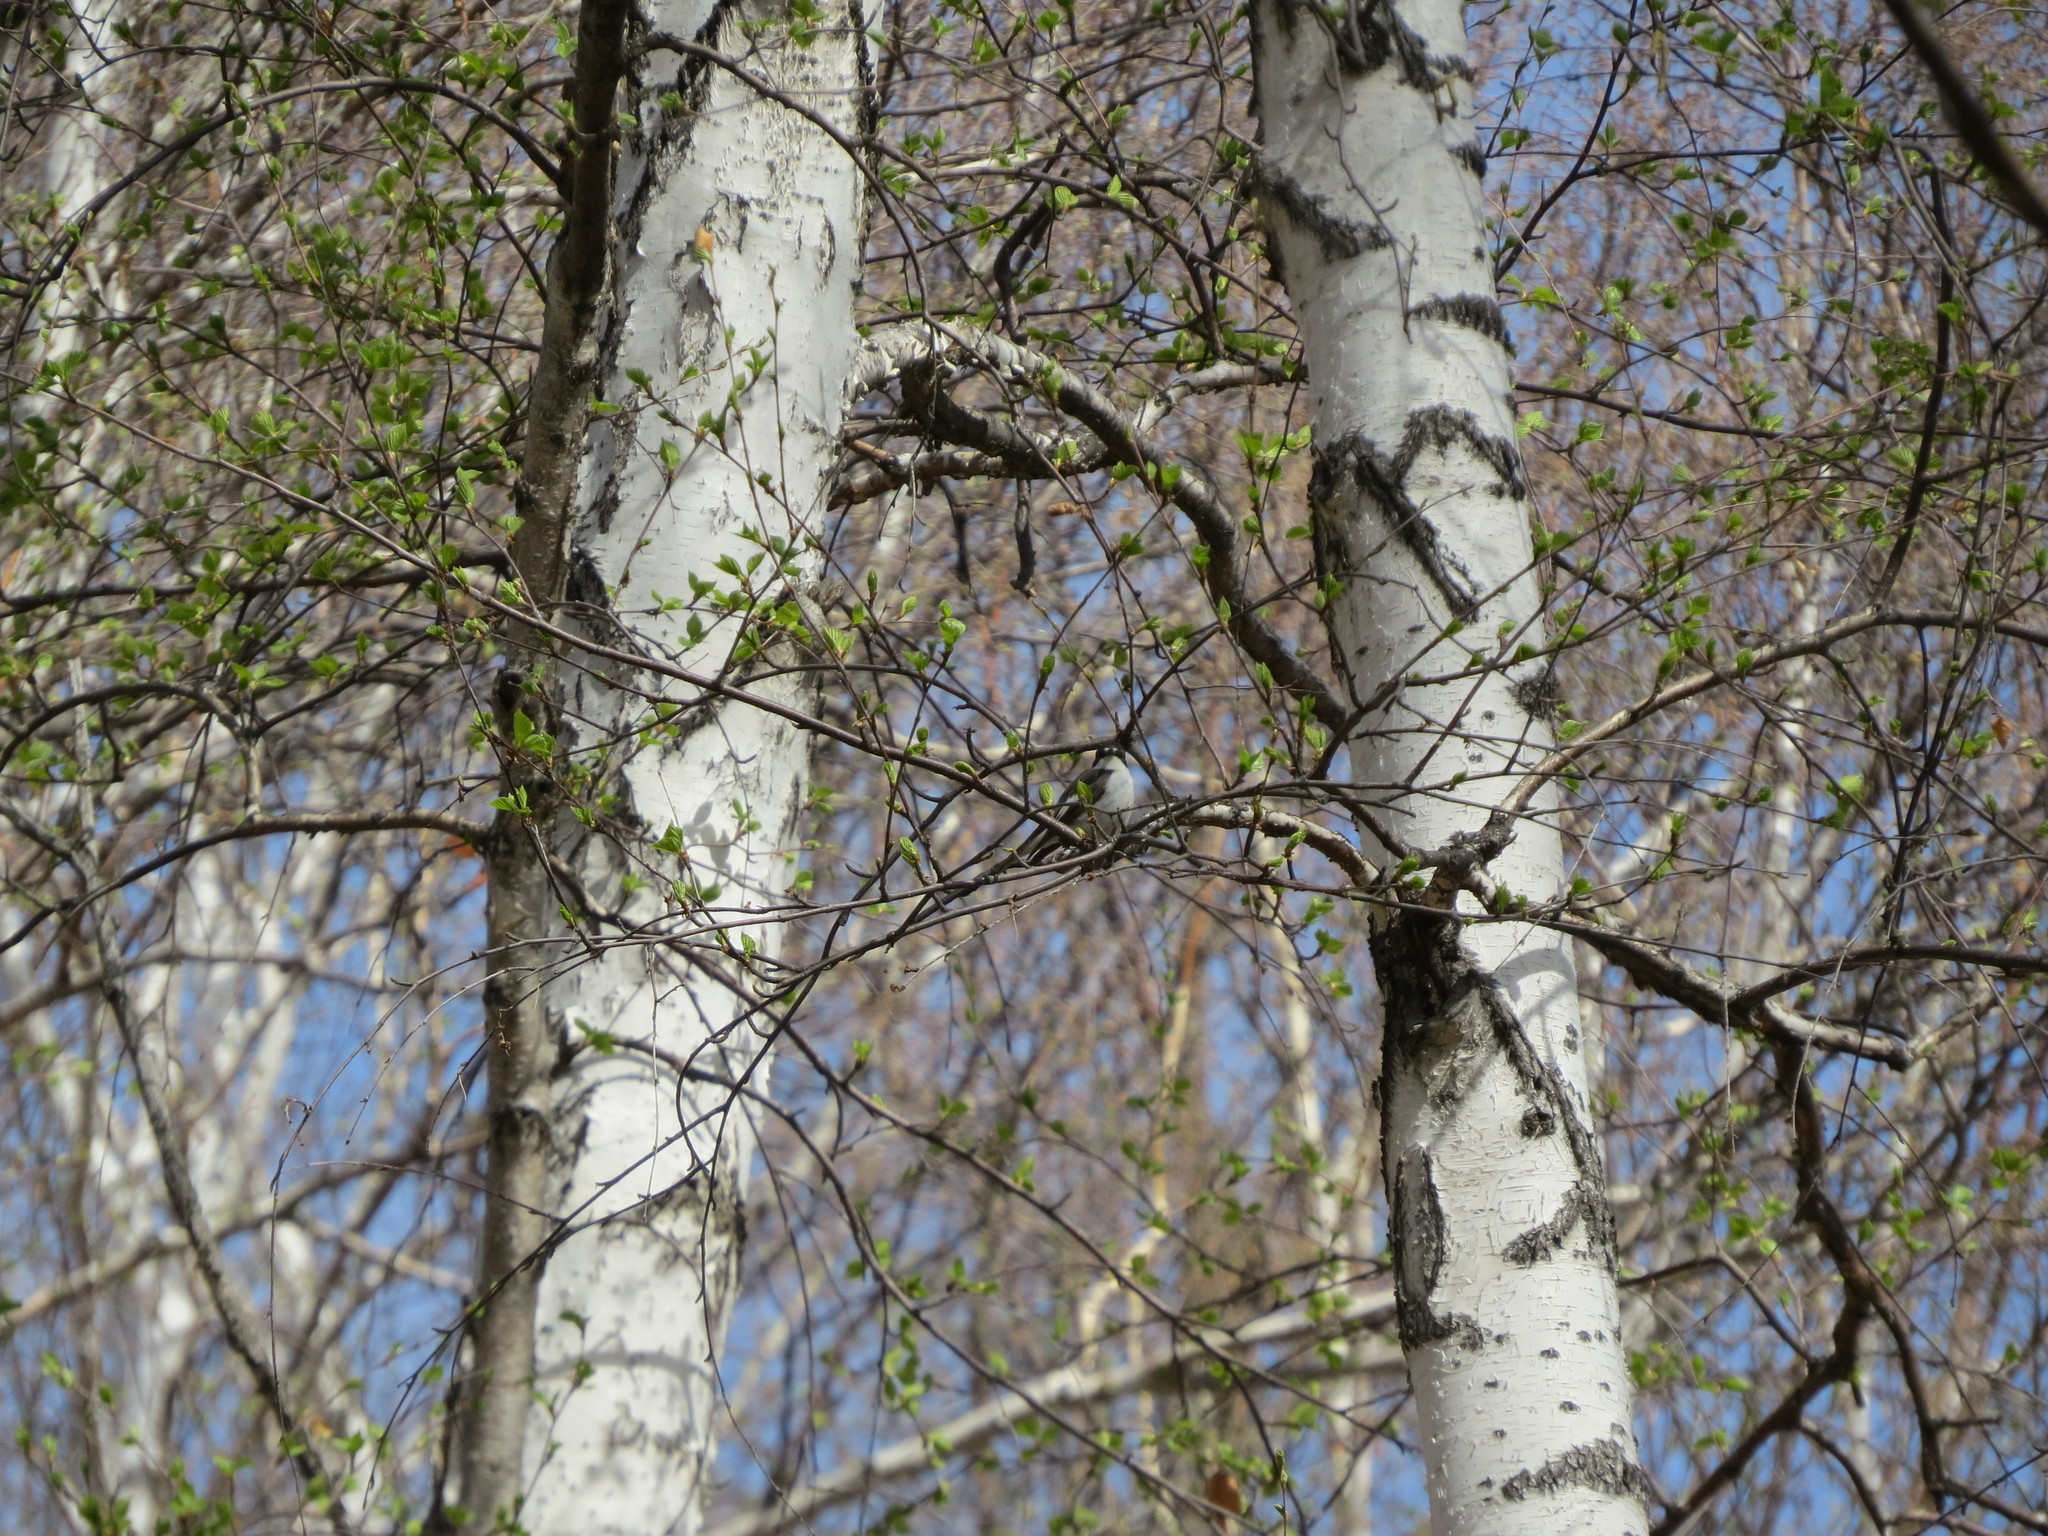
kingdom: Animalia
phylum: Chordata
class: Aves
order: Passeriformes
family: Muscicapidae
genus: Ficedula
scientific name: Ficedula hypoleuca
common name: European pied flycatcher
